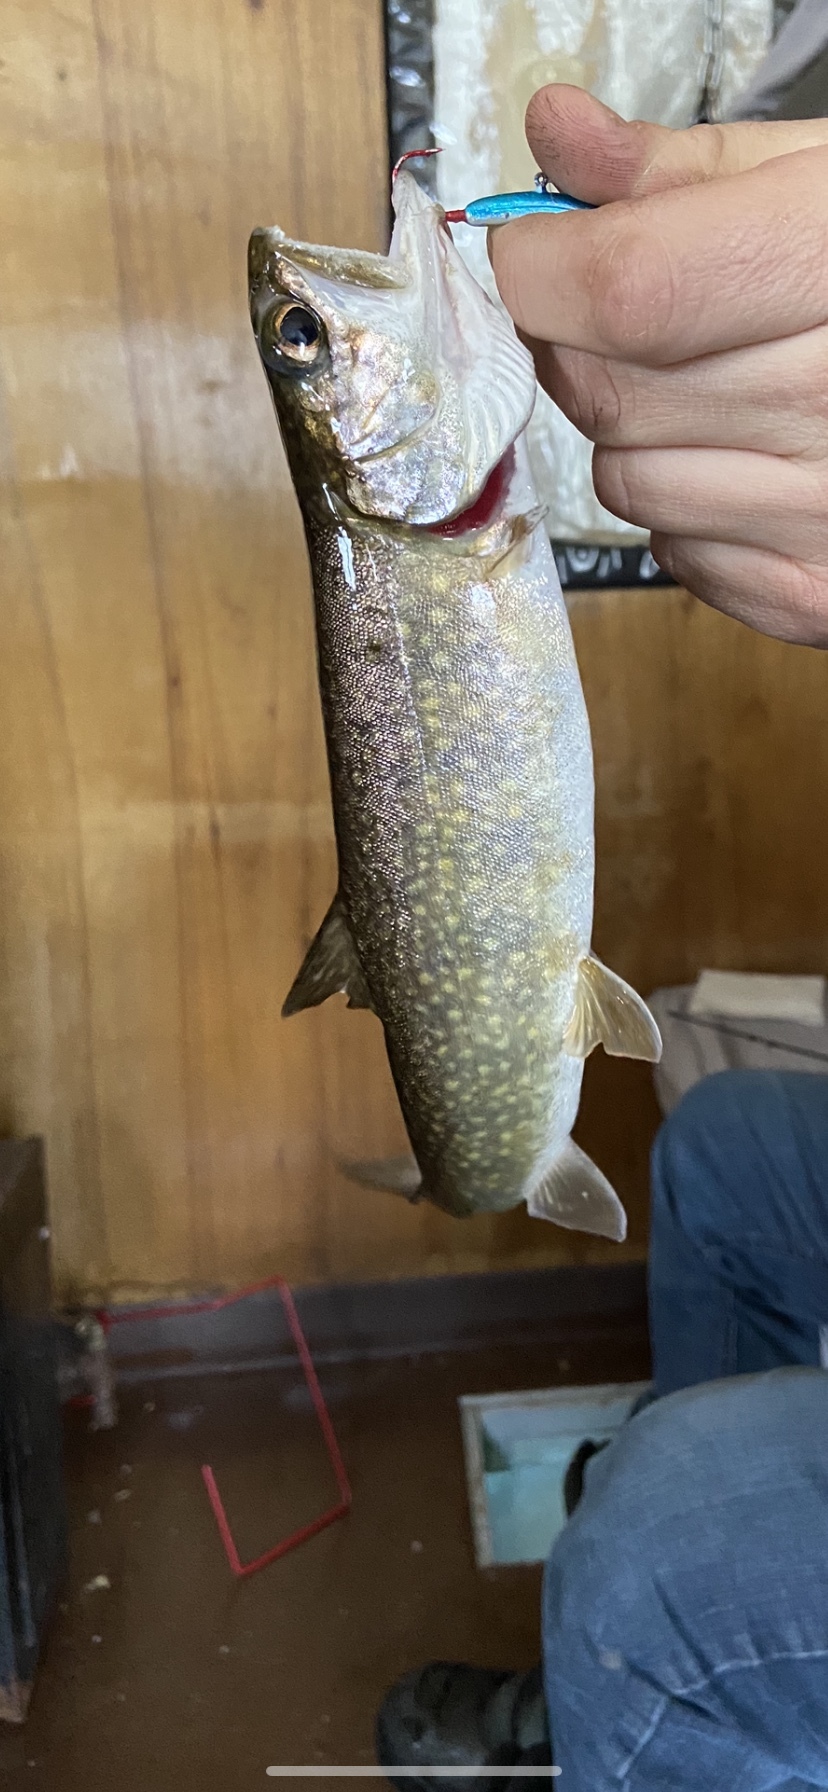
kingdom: Animalia
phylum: Chordata
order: Salmoniformes
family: Salmonidae
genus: Salvelinus
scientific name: Salvelinus namaycush
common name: American lake charr
